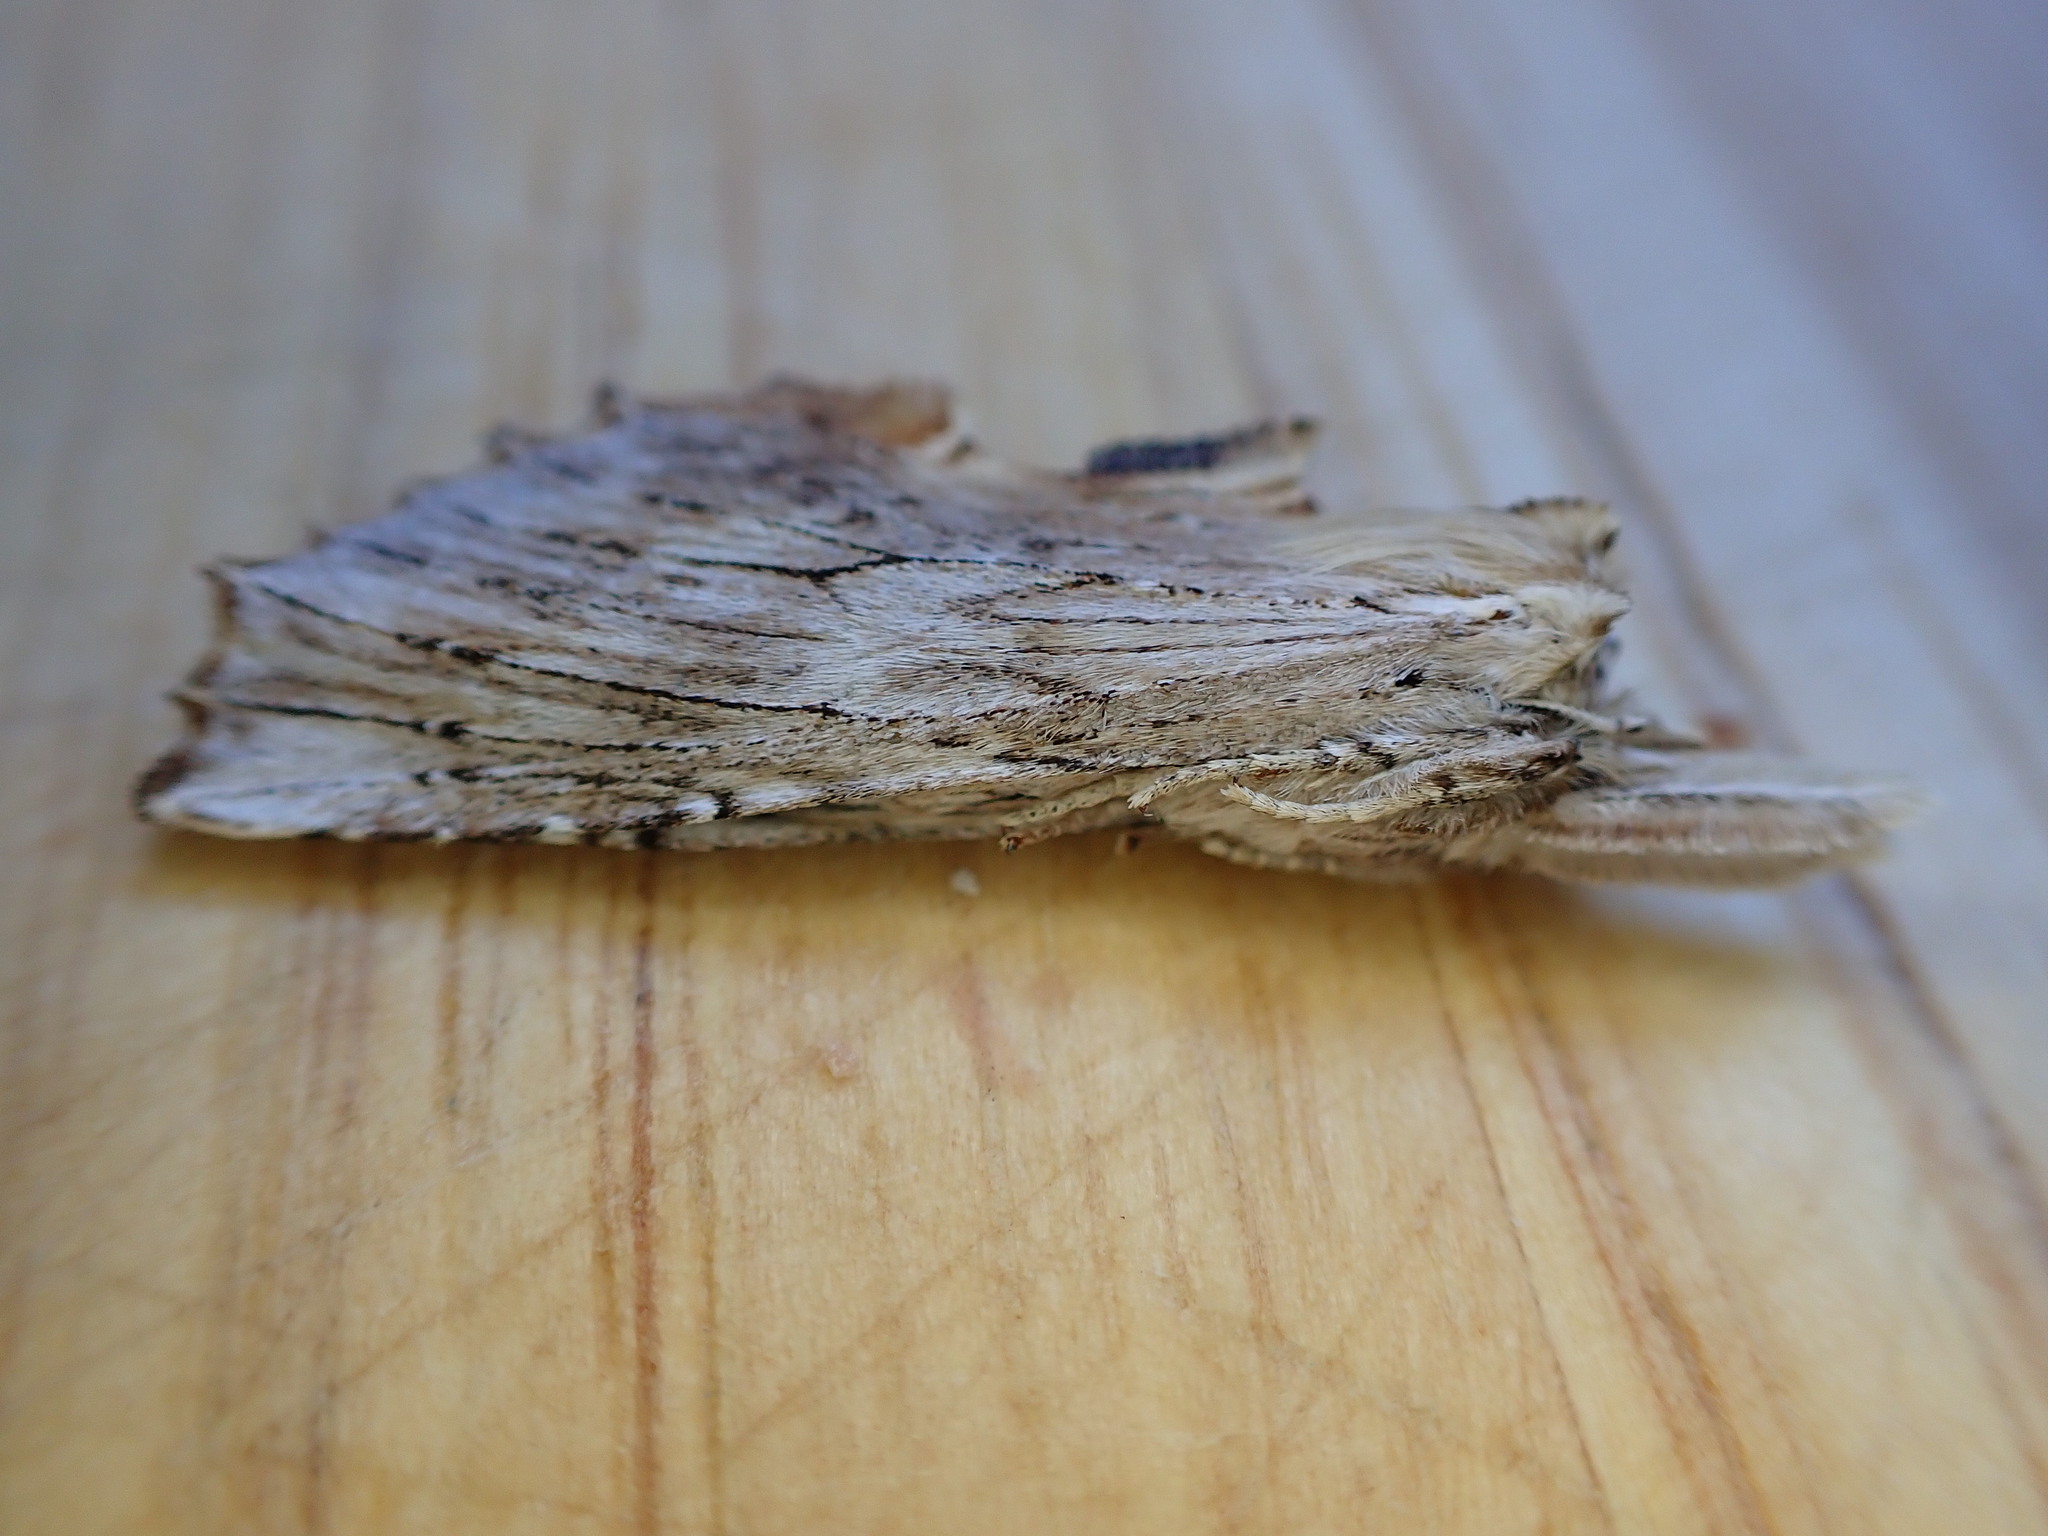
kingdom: Animalia
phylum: Arthropoda
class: Insecta
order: Lepidoptera
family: Notodontidae
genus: Pterostoma
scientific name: Pterostoma palpina
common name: Pale prominent
